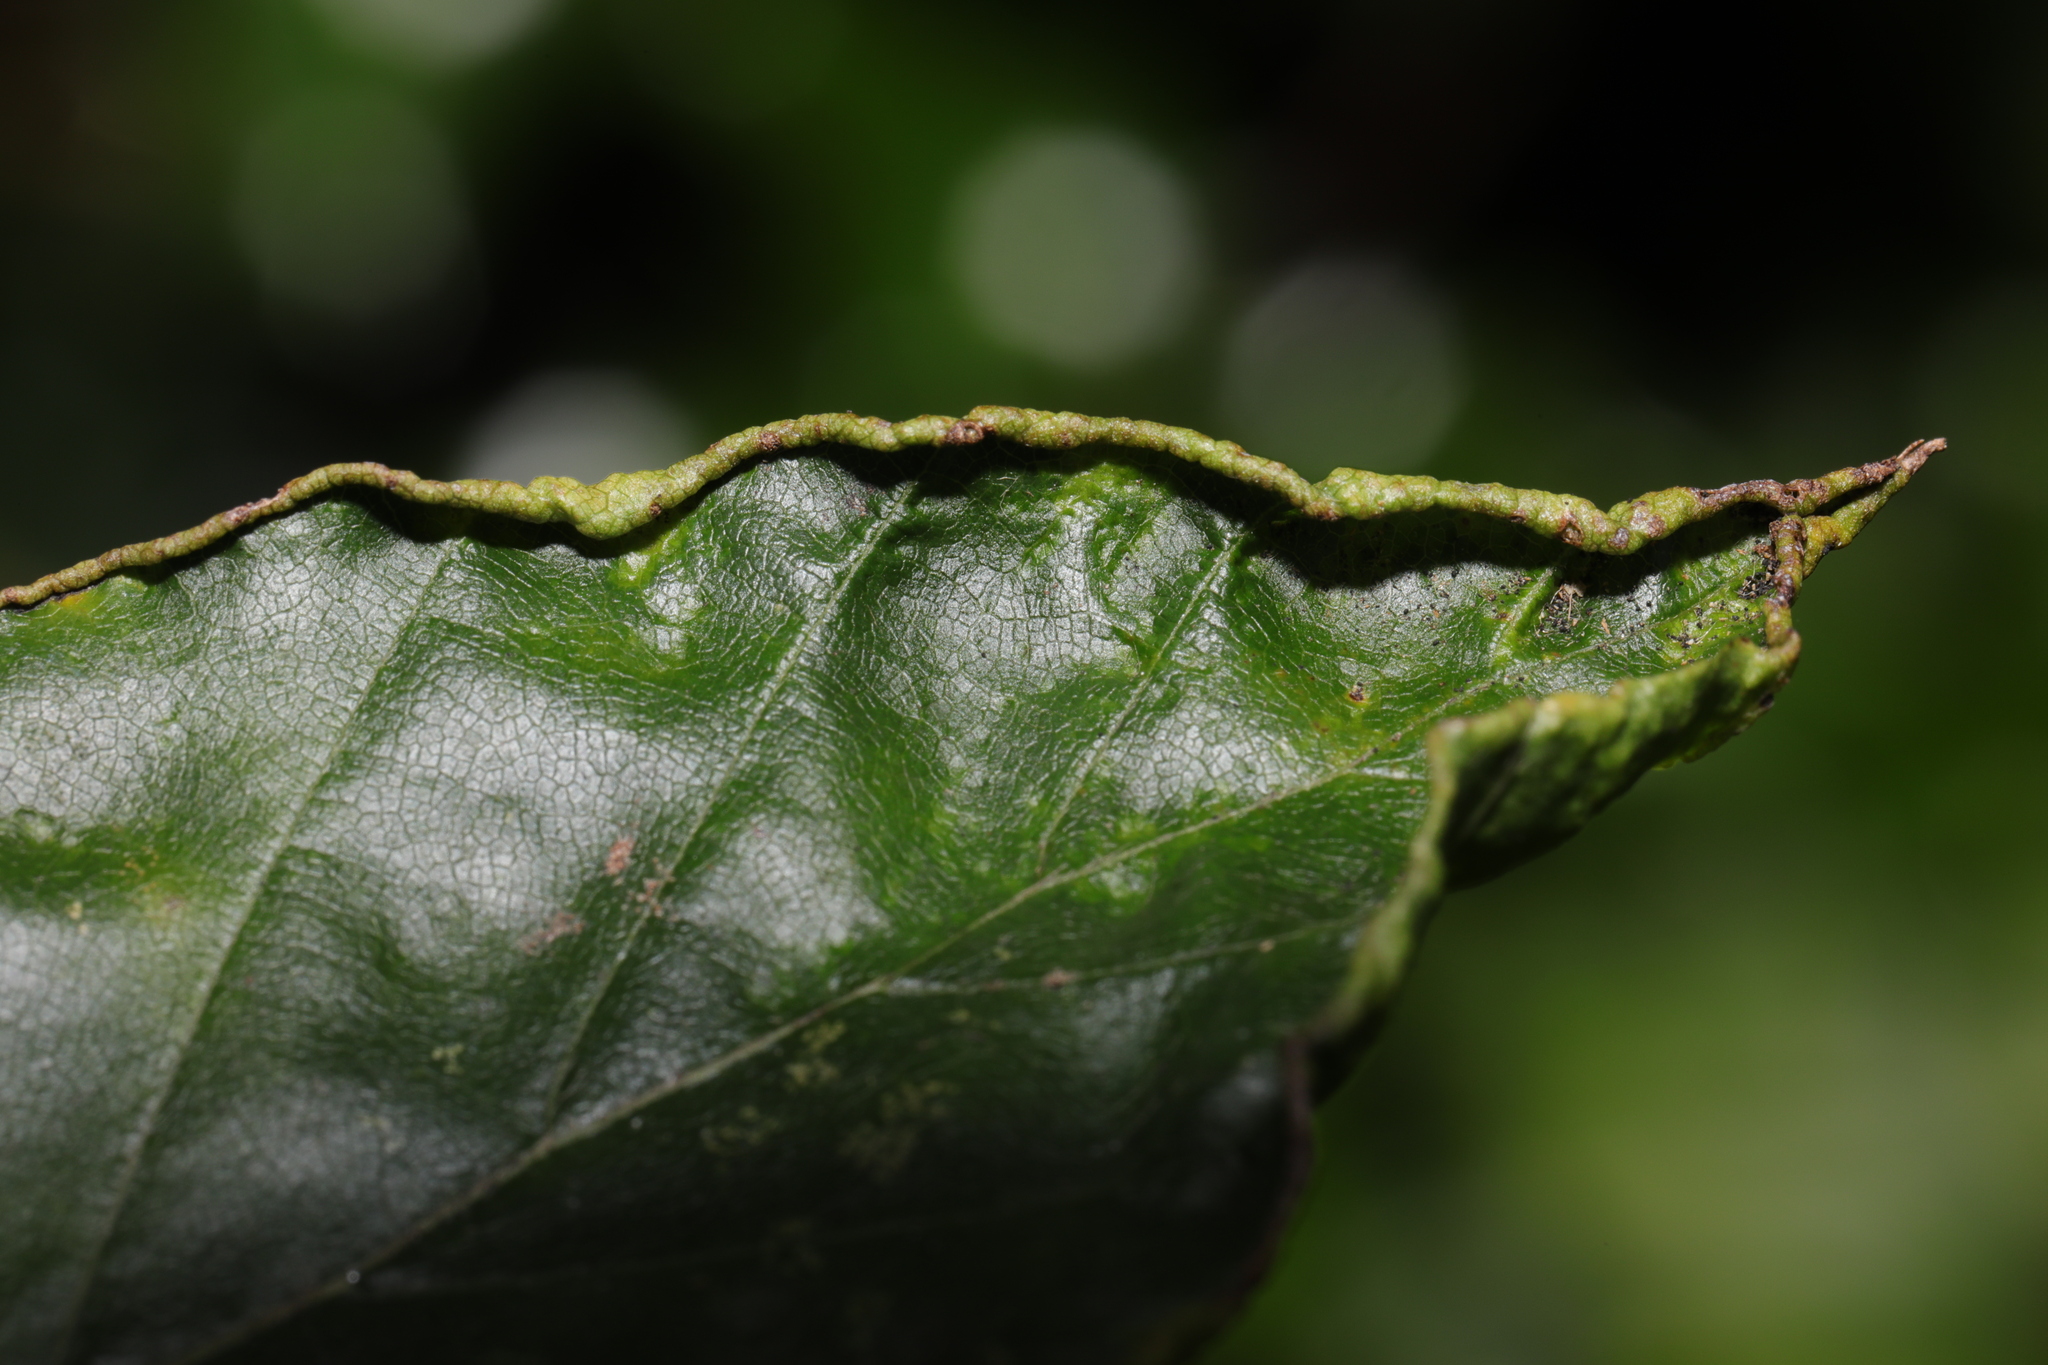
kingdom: Animalia
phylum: Arthropoda
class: Arachnida
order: Trombidiformes
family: Eriophyidae
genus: Acalitus
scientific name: Acalitus stenaspis
